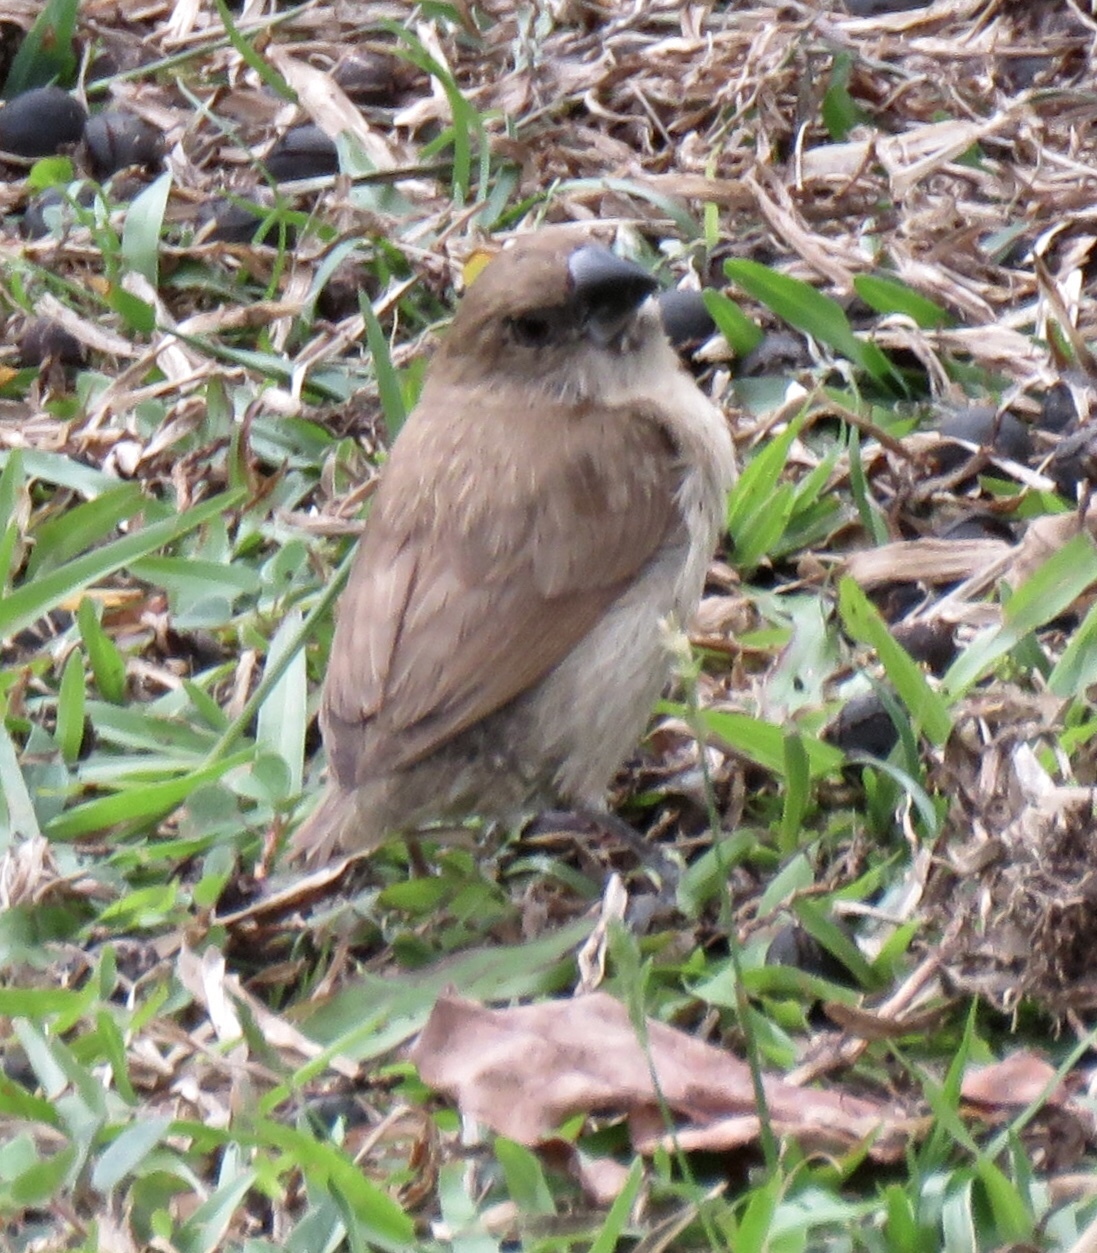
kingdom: Animalia
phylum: Chordata
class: Aves
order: Passeriformes
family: Estrildidae
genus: Lonchura
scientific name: Lonchura punctulata
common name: Scaly-breasted munia
